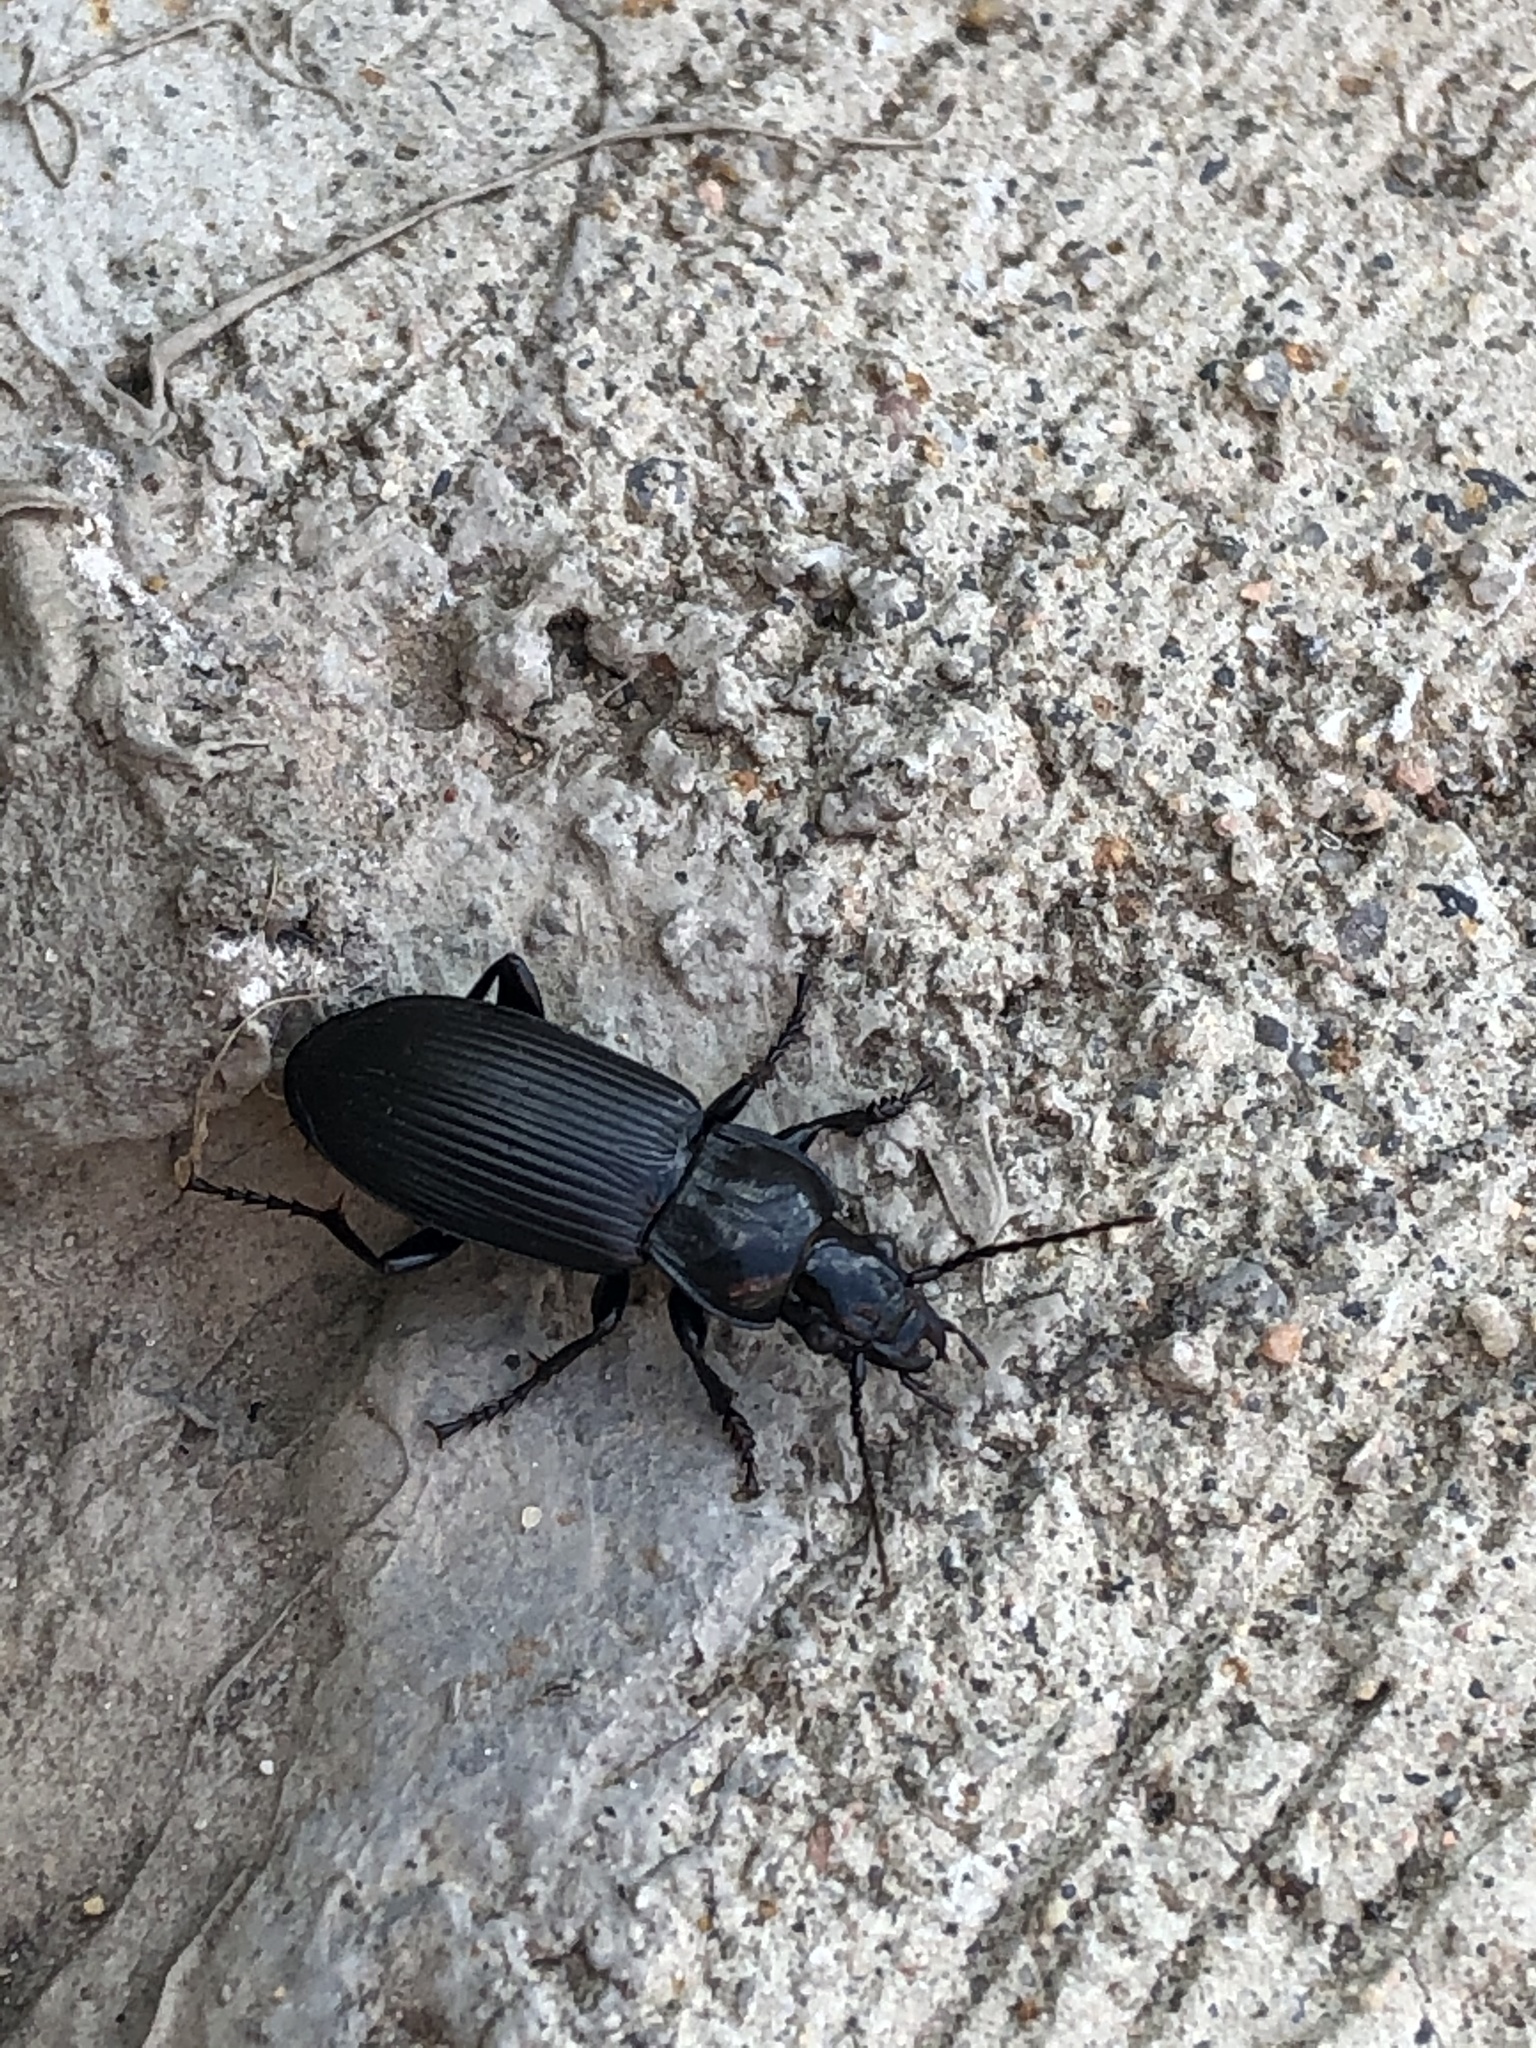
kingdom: Animalia
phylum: Arthropoda
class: Insecta
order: Coleoptera
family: Carabidae
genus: Pterostichus
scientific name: Pterostichus melanarius
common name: European dark harp ground beetle
